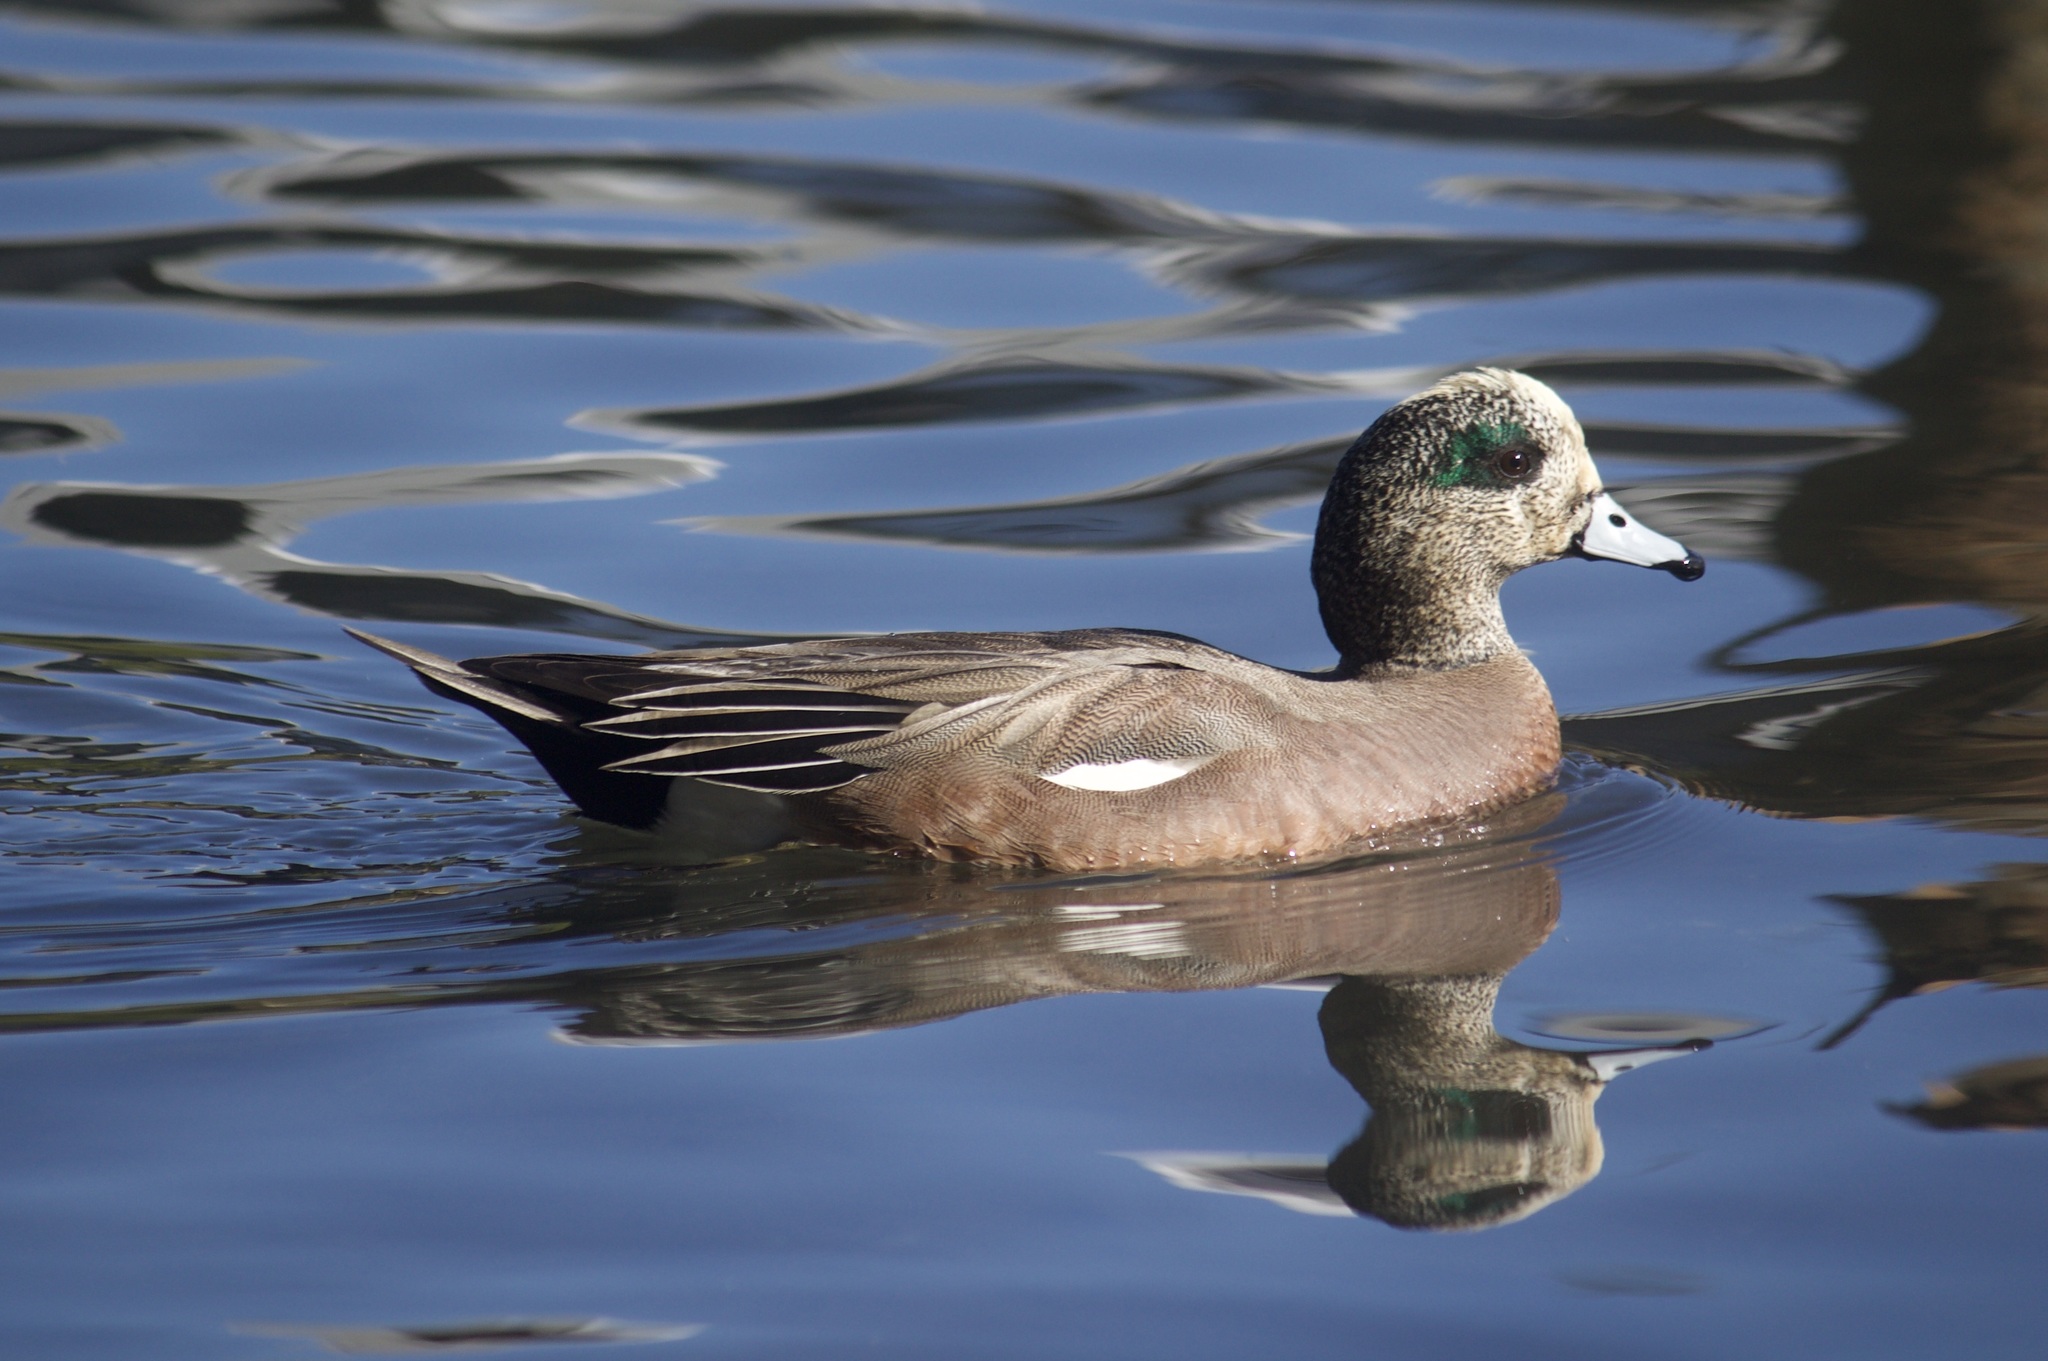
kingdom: Animalia
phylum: Chordata
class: Aves
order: Anseriformes
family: Anatidae
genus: Mareca
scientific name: Mareca americana
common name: American wigeon
